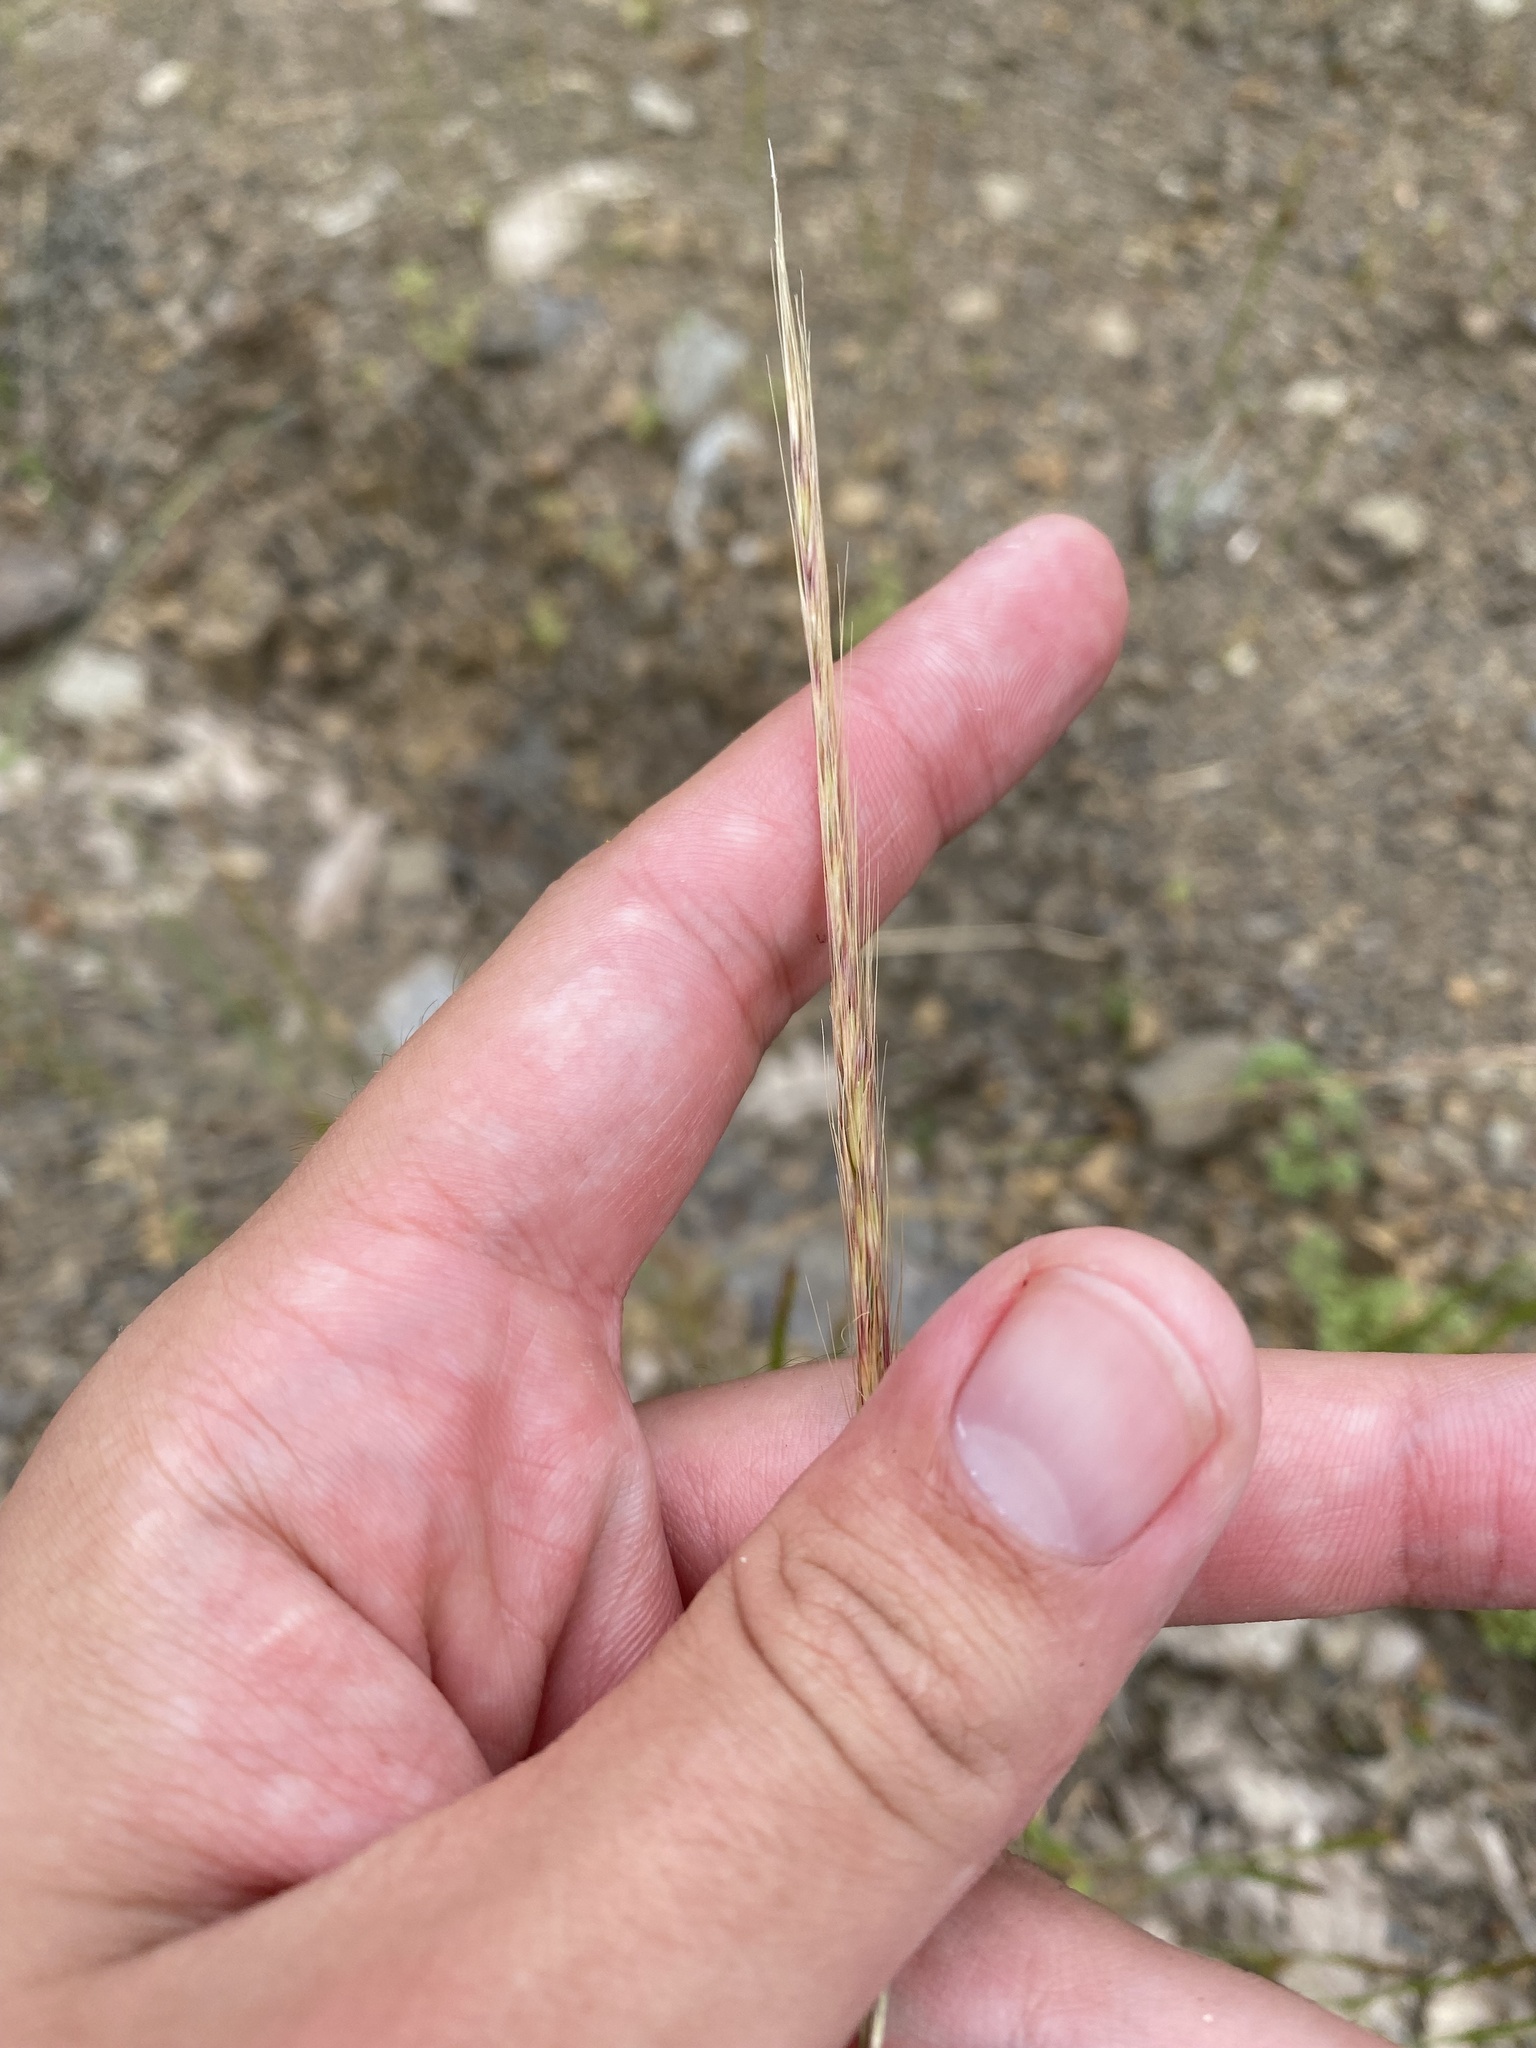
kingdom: Plantae
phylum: Tracheophyta
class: Liliopsida
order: Poales
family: Poaceae
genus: Festuca
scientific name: Festuca myuros
